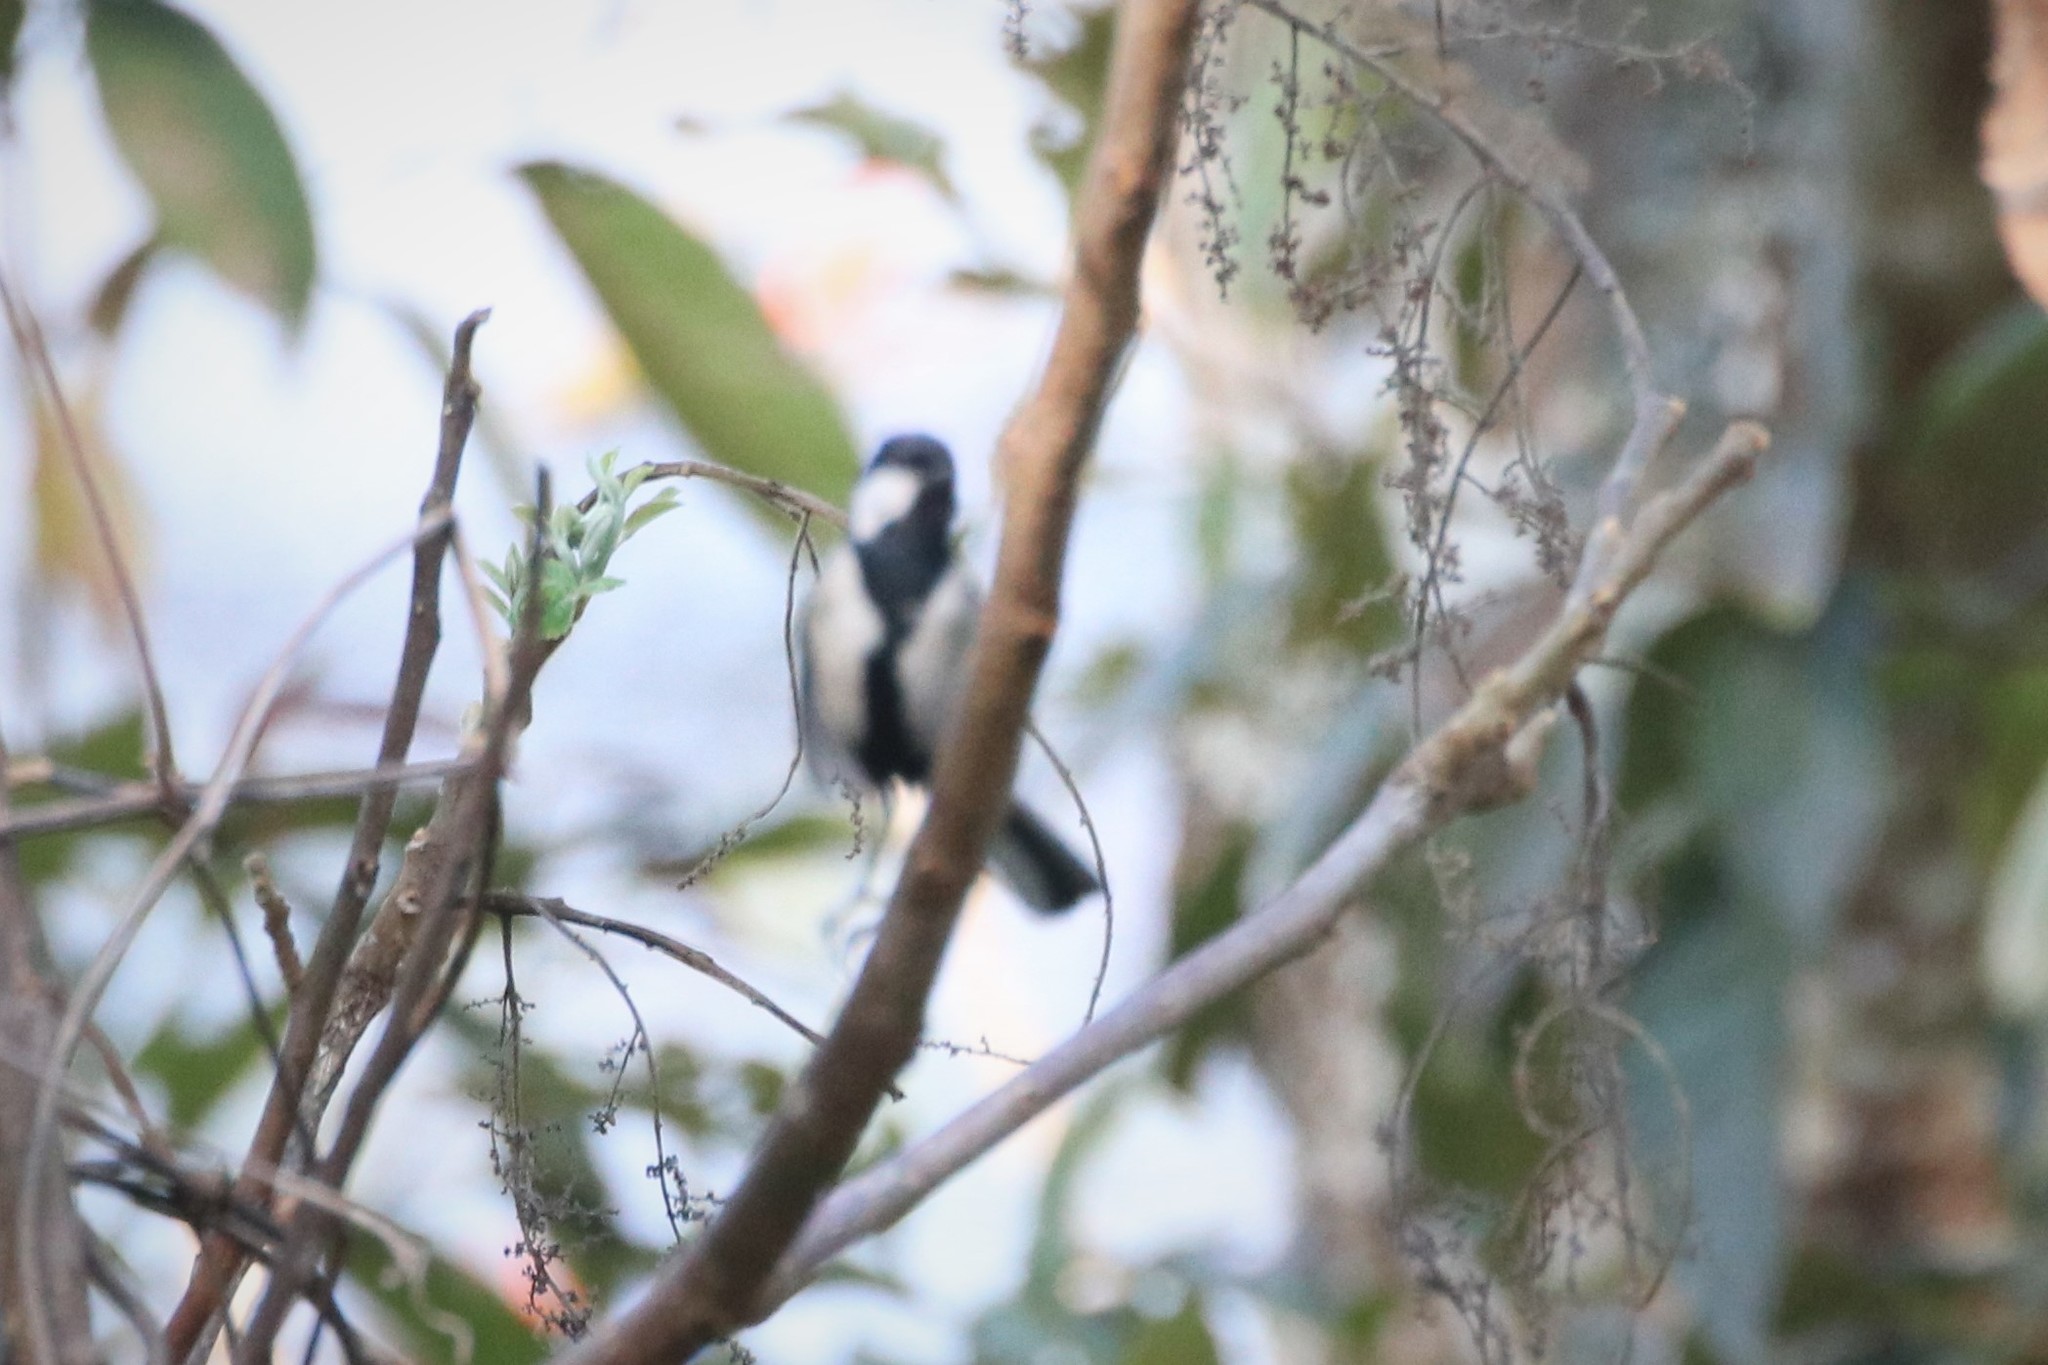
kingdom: Animalia
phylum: Chordata
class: Aves
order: Passeriformes
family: Paridae
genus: Parus
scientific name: Parus minor
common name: Japanese tit
